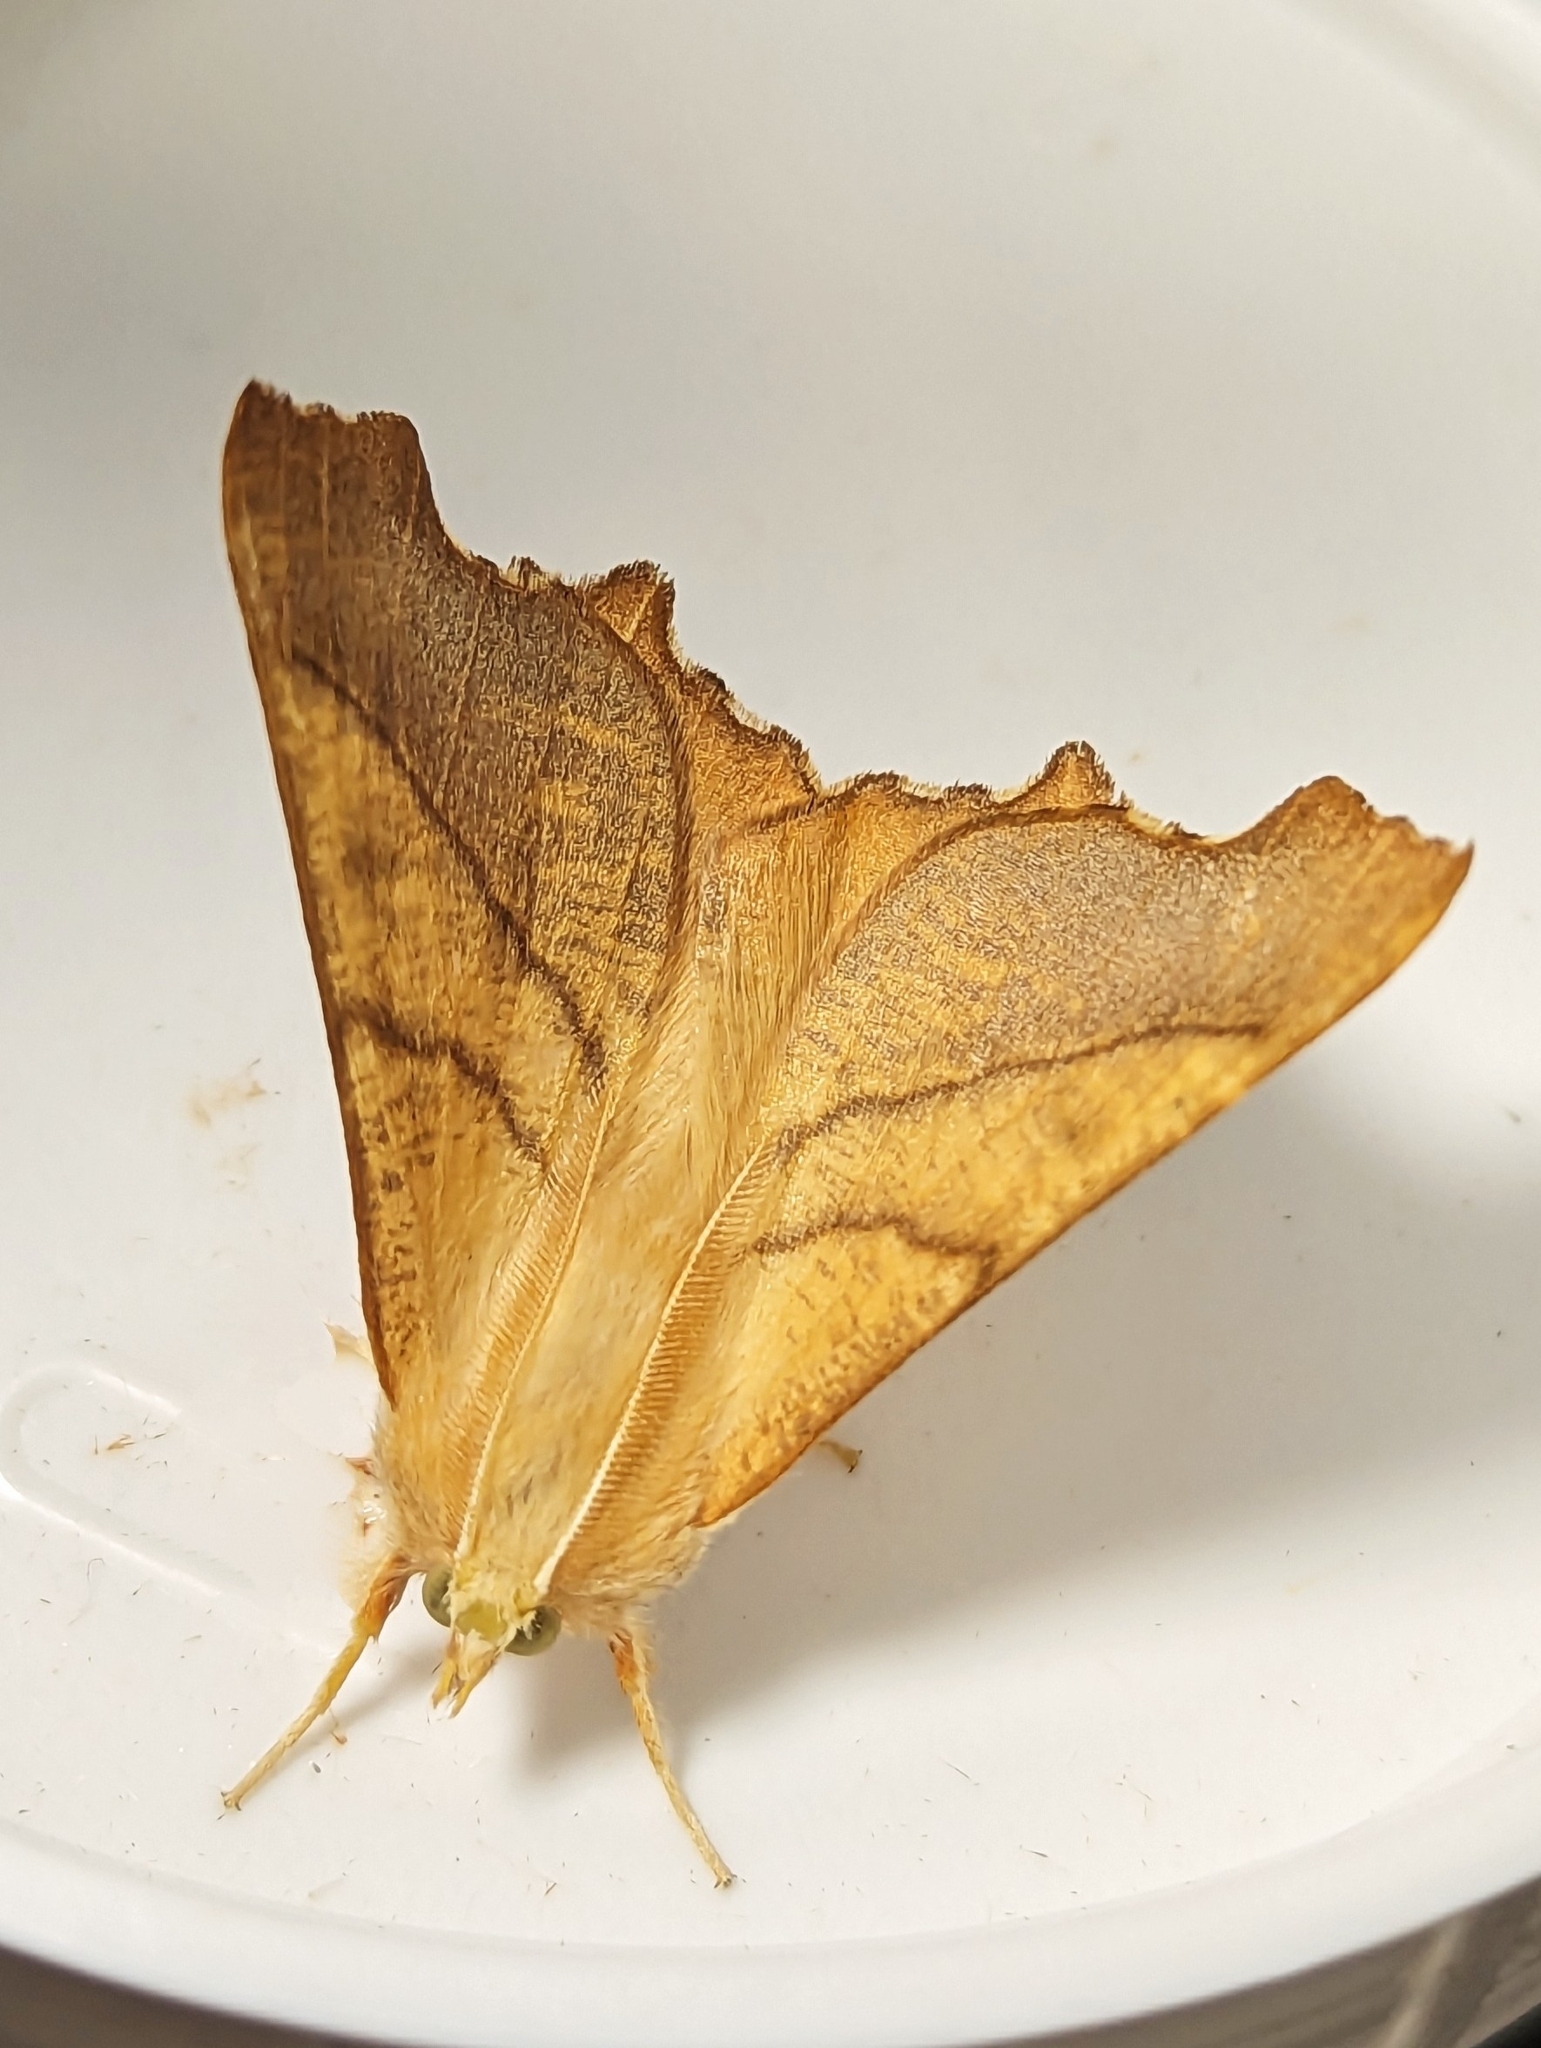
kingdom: Animalia
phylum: Arthropoda
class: Insecta
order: Lepidoptera
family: Geometridae
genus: Ennomos
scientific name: Ennomos fuscantaria
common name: Dusky thorn
